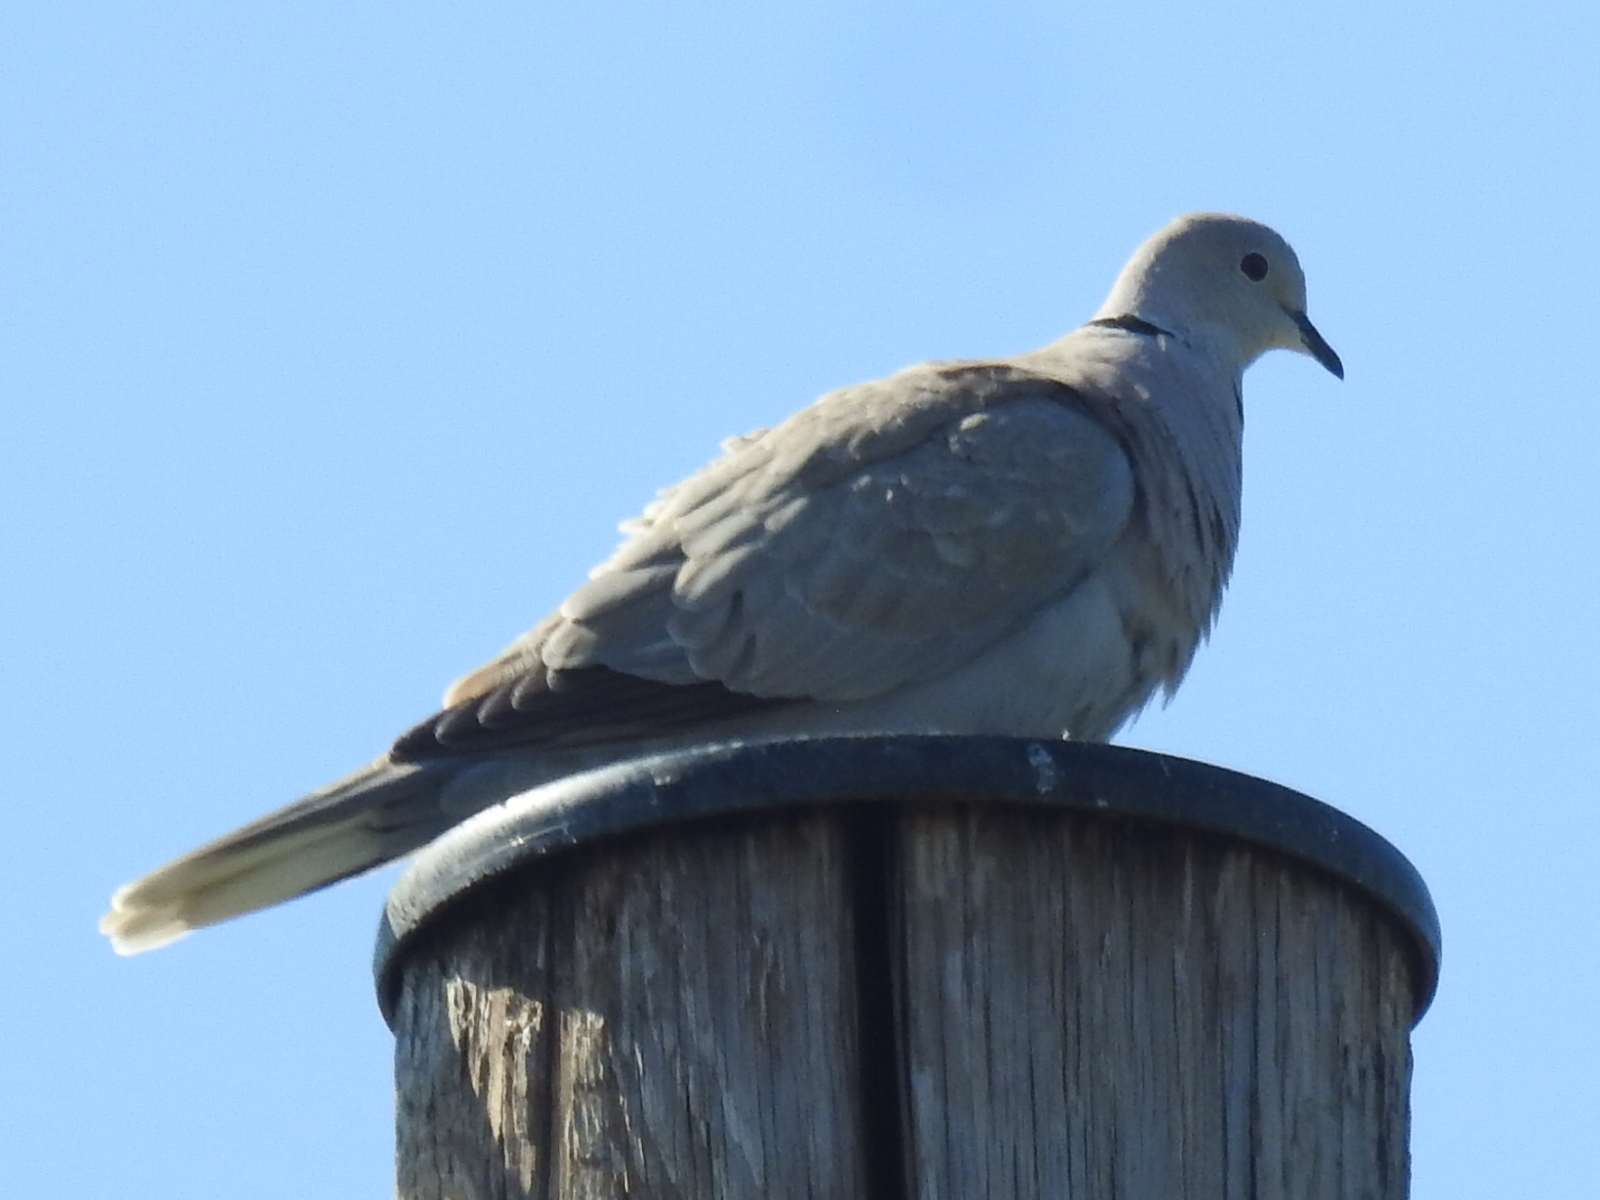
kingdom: Animalia
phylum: Chordata
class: Aves
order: Columbiformes
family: Columbidae
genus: Streptopelia
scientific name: Streptopelia decaocto
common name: Eurasian collared dove
